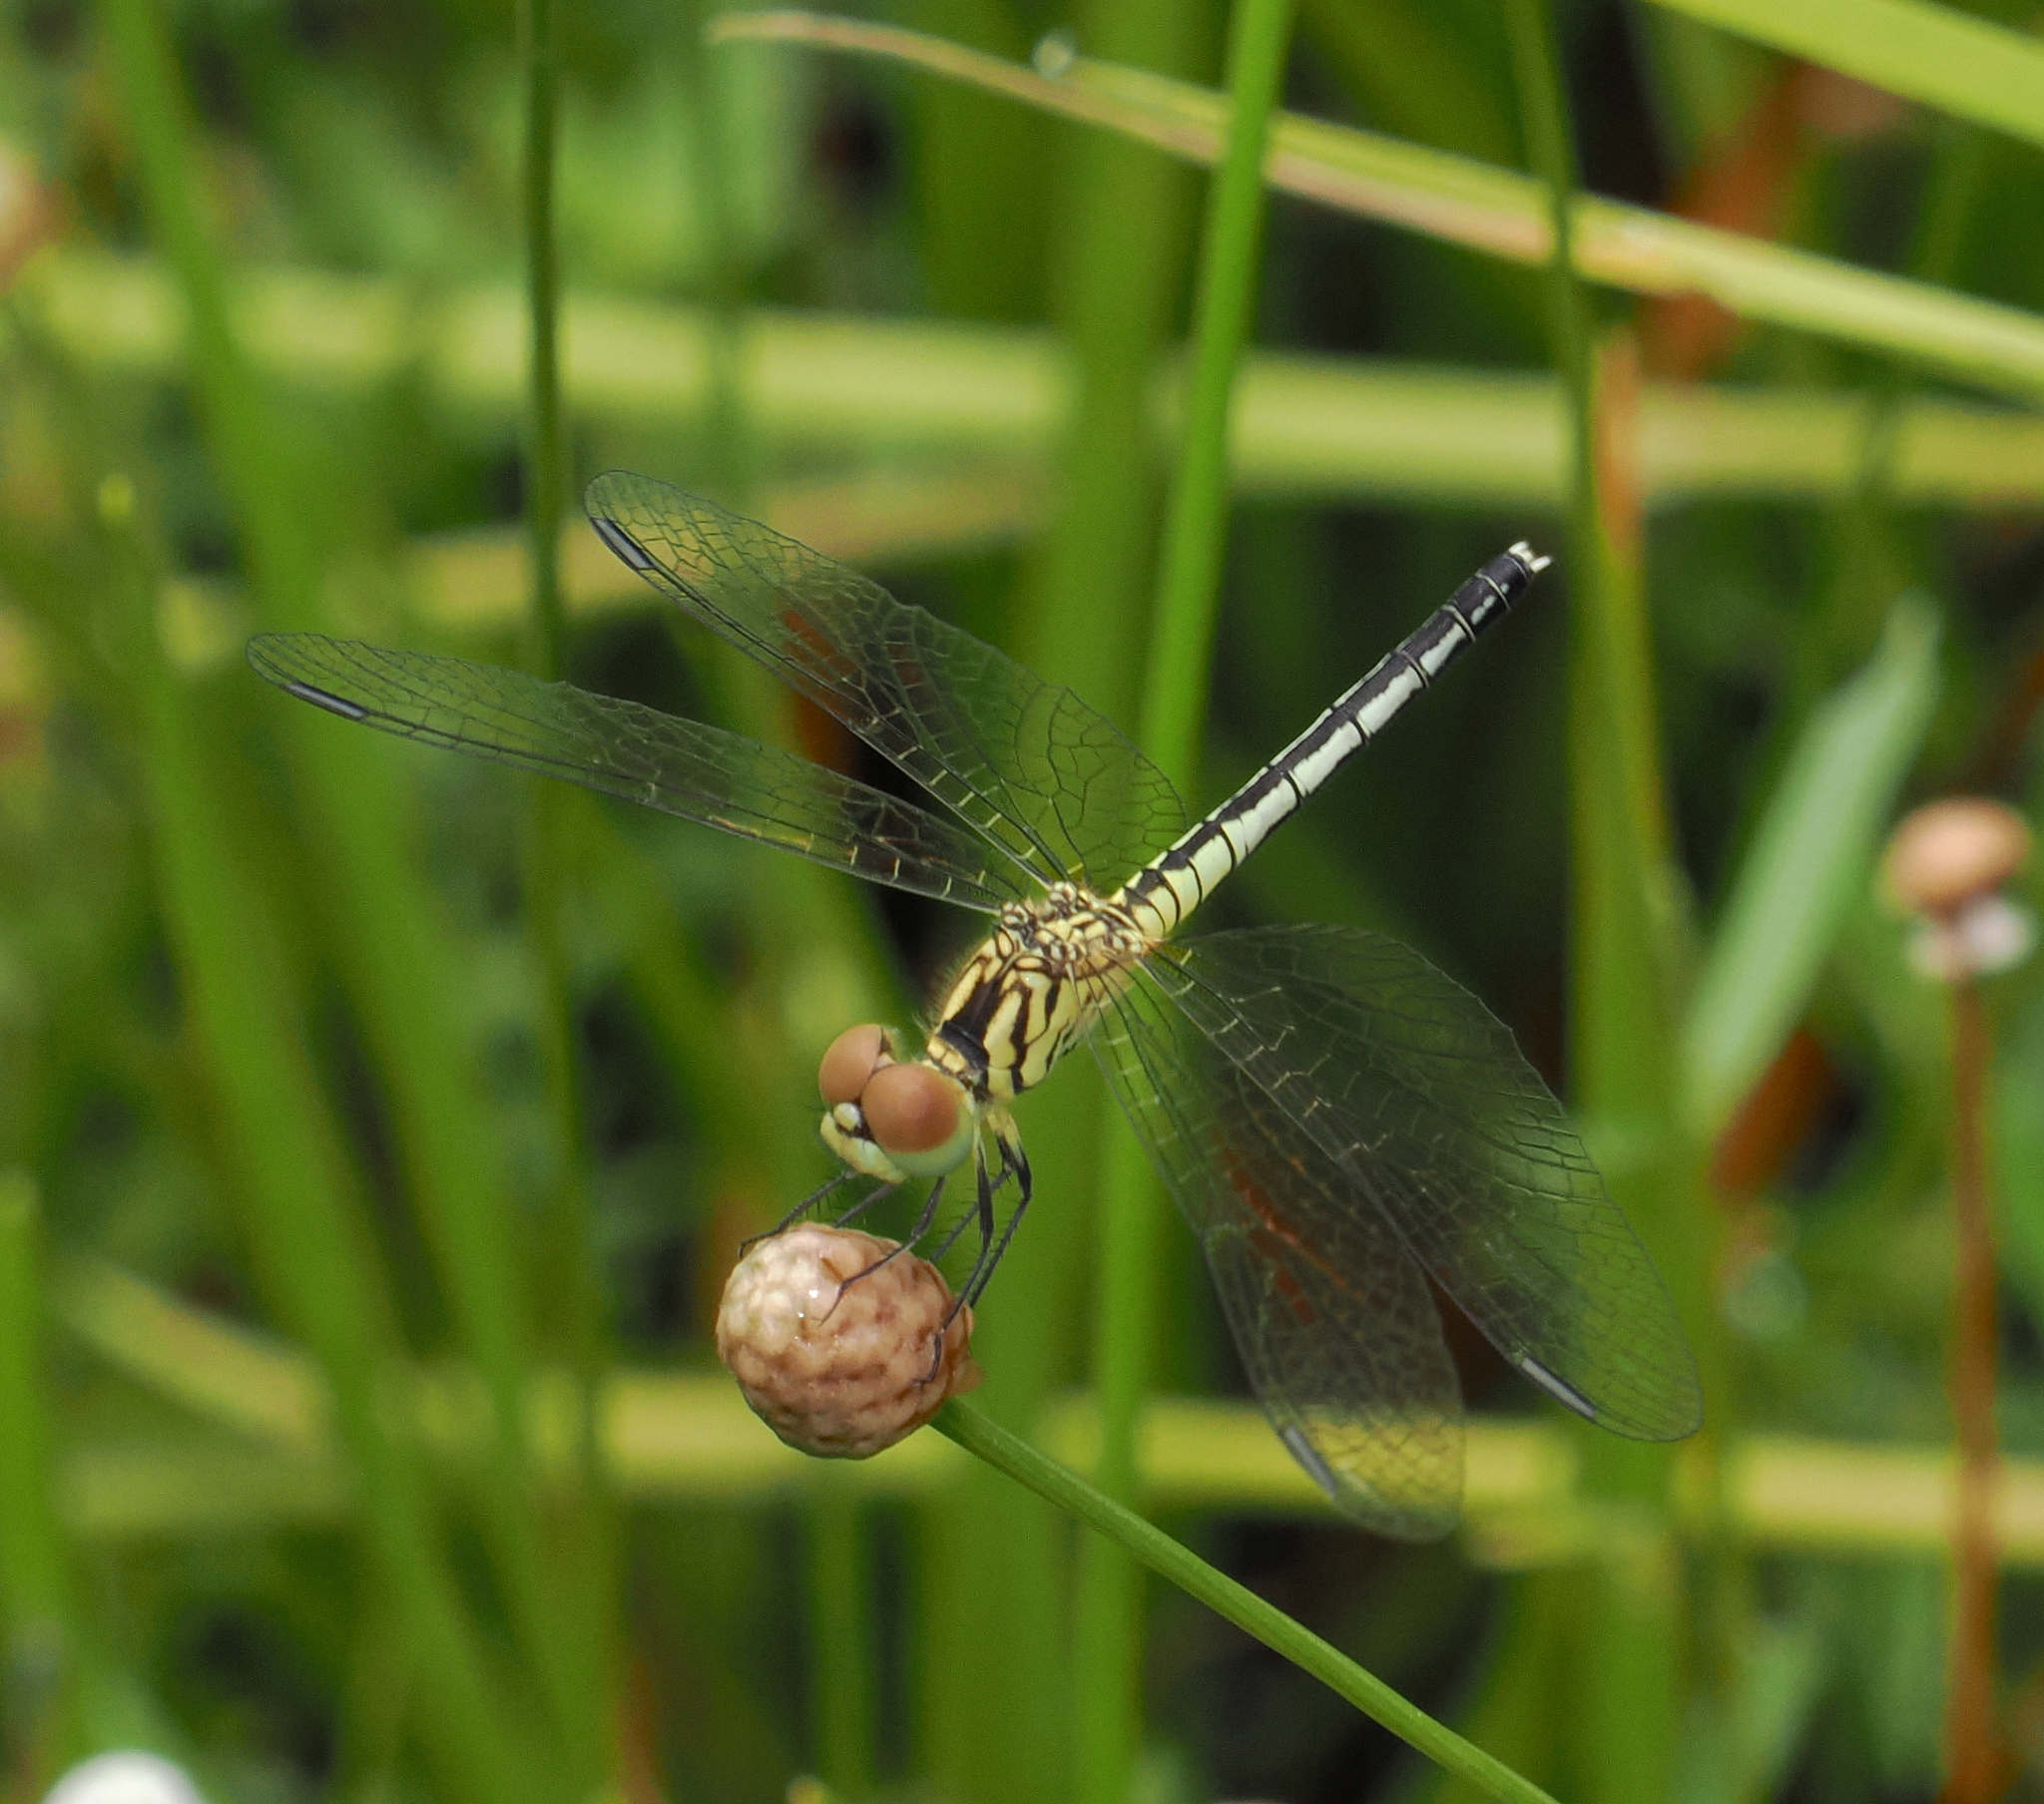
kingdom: Animalia
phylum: Arthropoda
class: Insecta
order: Odonata
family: Libellulidae
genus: Diplacodes
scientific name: Diplacodes nebulosa
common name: Black-tipped percher
